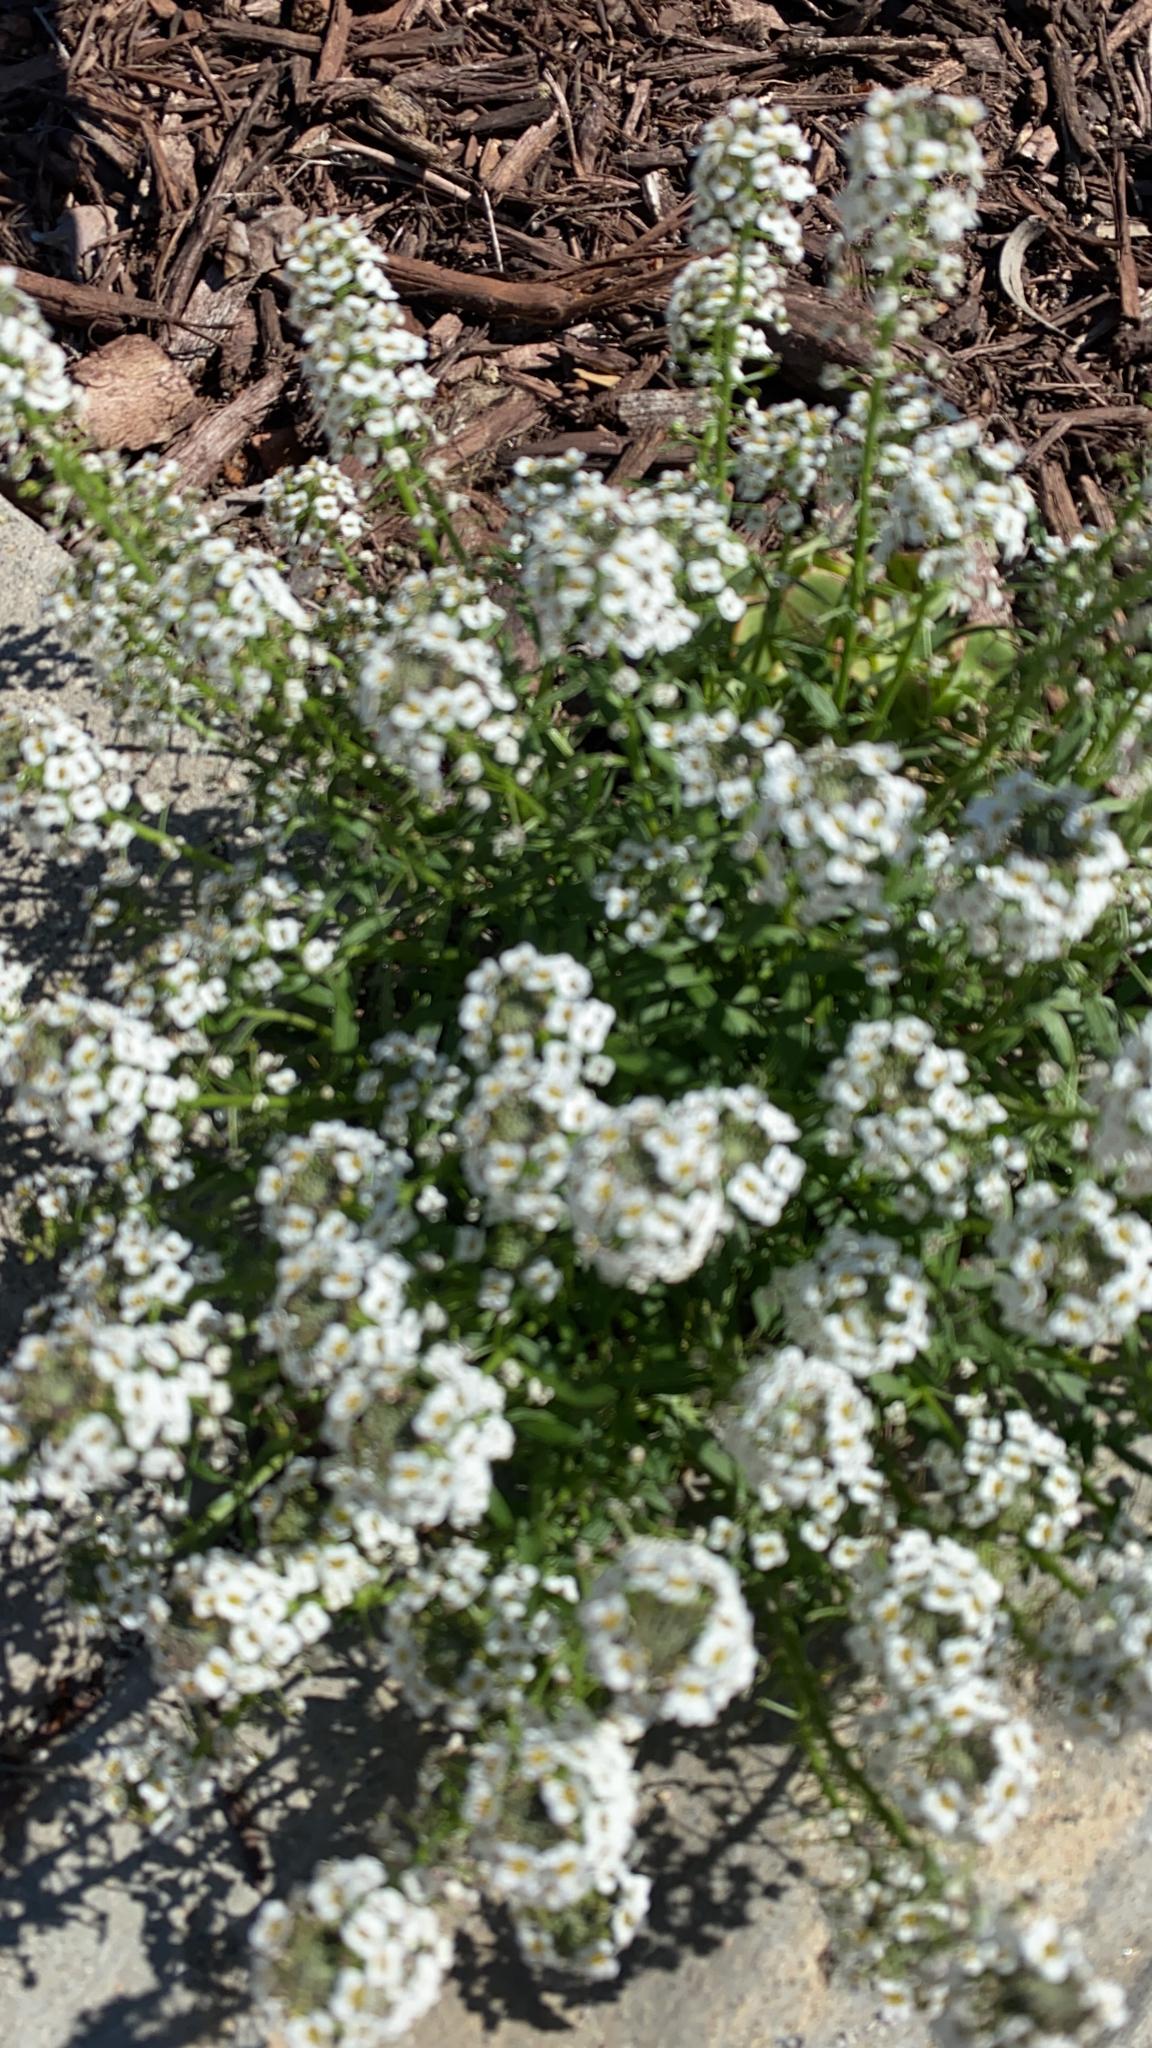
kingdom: Plantae
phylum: Tracheophyta
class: Magnoliopsida
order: Brassicales
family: Brassicaceae
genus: Lobularia
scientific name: Lobularia maritima
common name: Sweet alison
